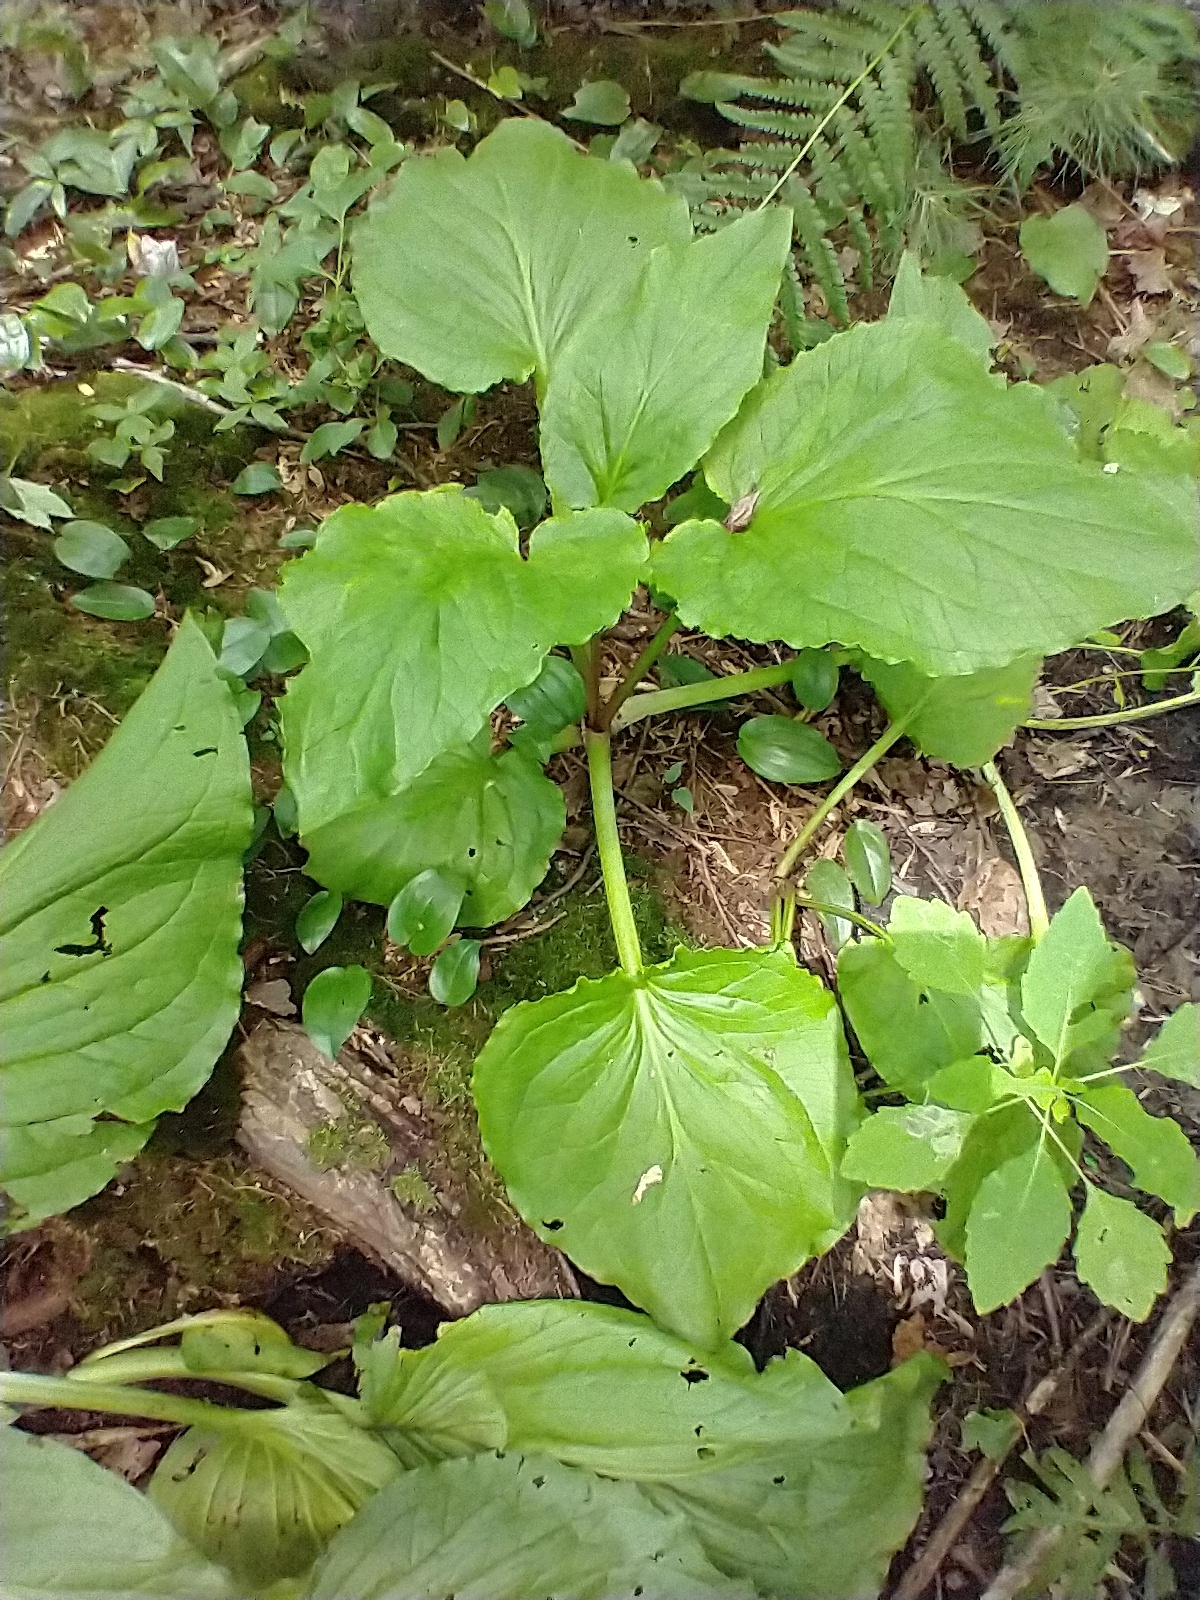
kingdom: Plantae
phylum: Tracheophyta
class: Liliopsida
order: Alismatales
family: Araceae
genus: Symplocarpus
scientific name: Symplocarpus foetidus
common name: Eastern skunk cabbage
